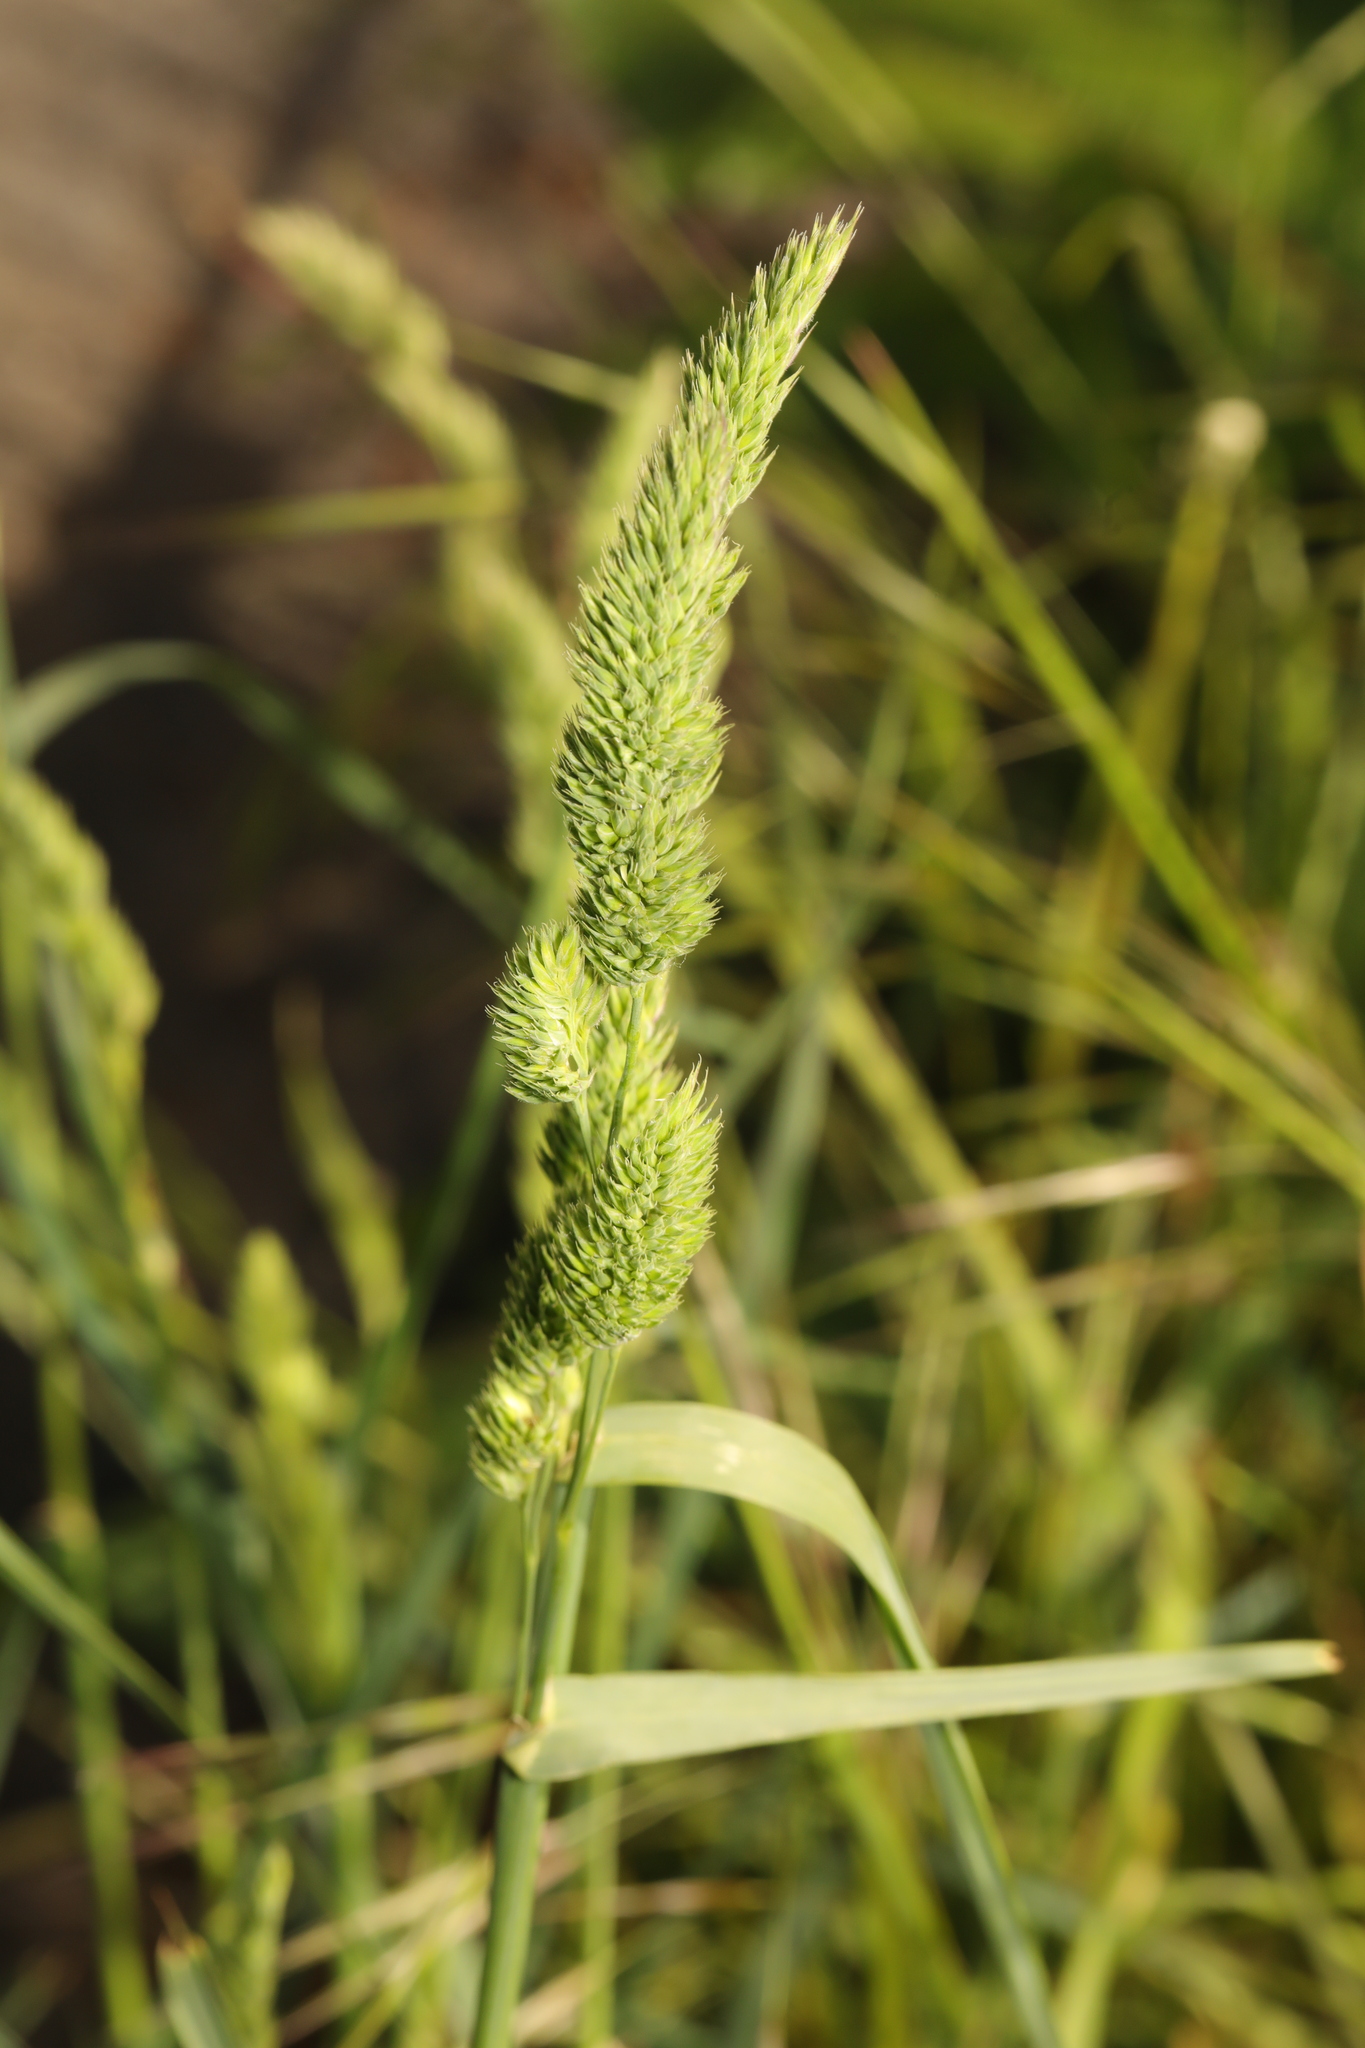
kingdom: Plantae
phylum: Tracheophyta
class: Liliopsida
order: Poales
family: Poaceae
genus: Dactylis
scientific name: Dactylis glomerata
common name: Orchardgrass
